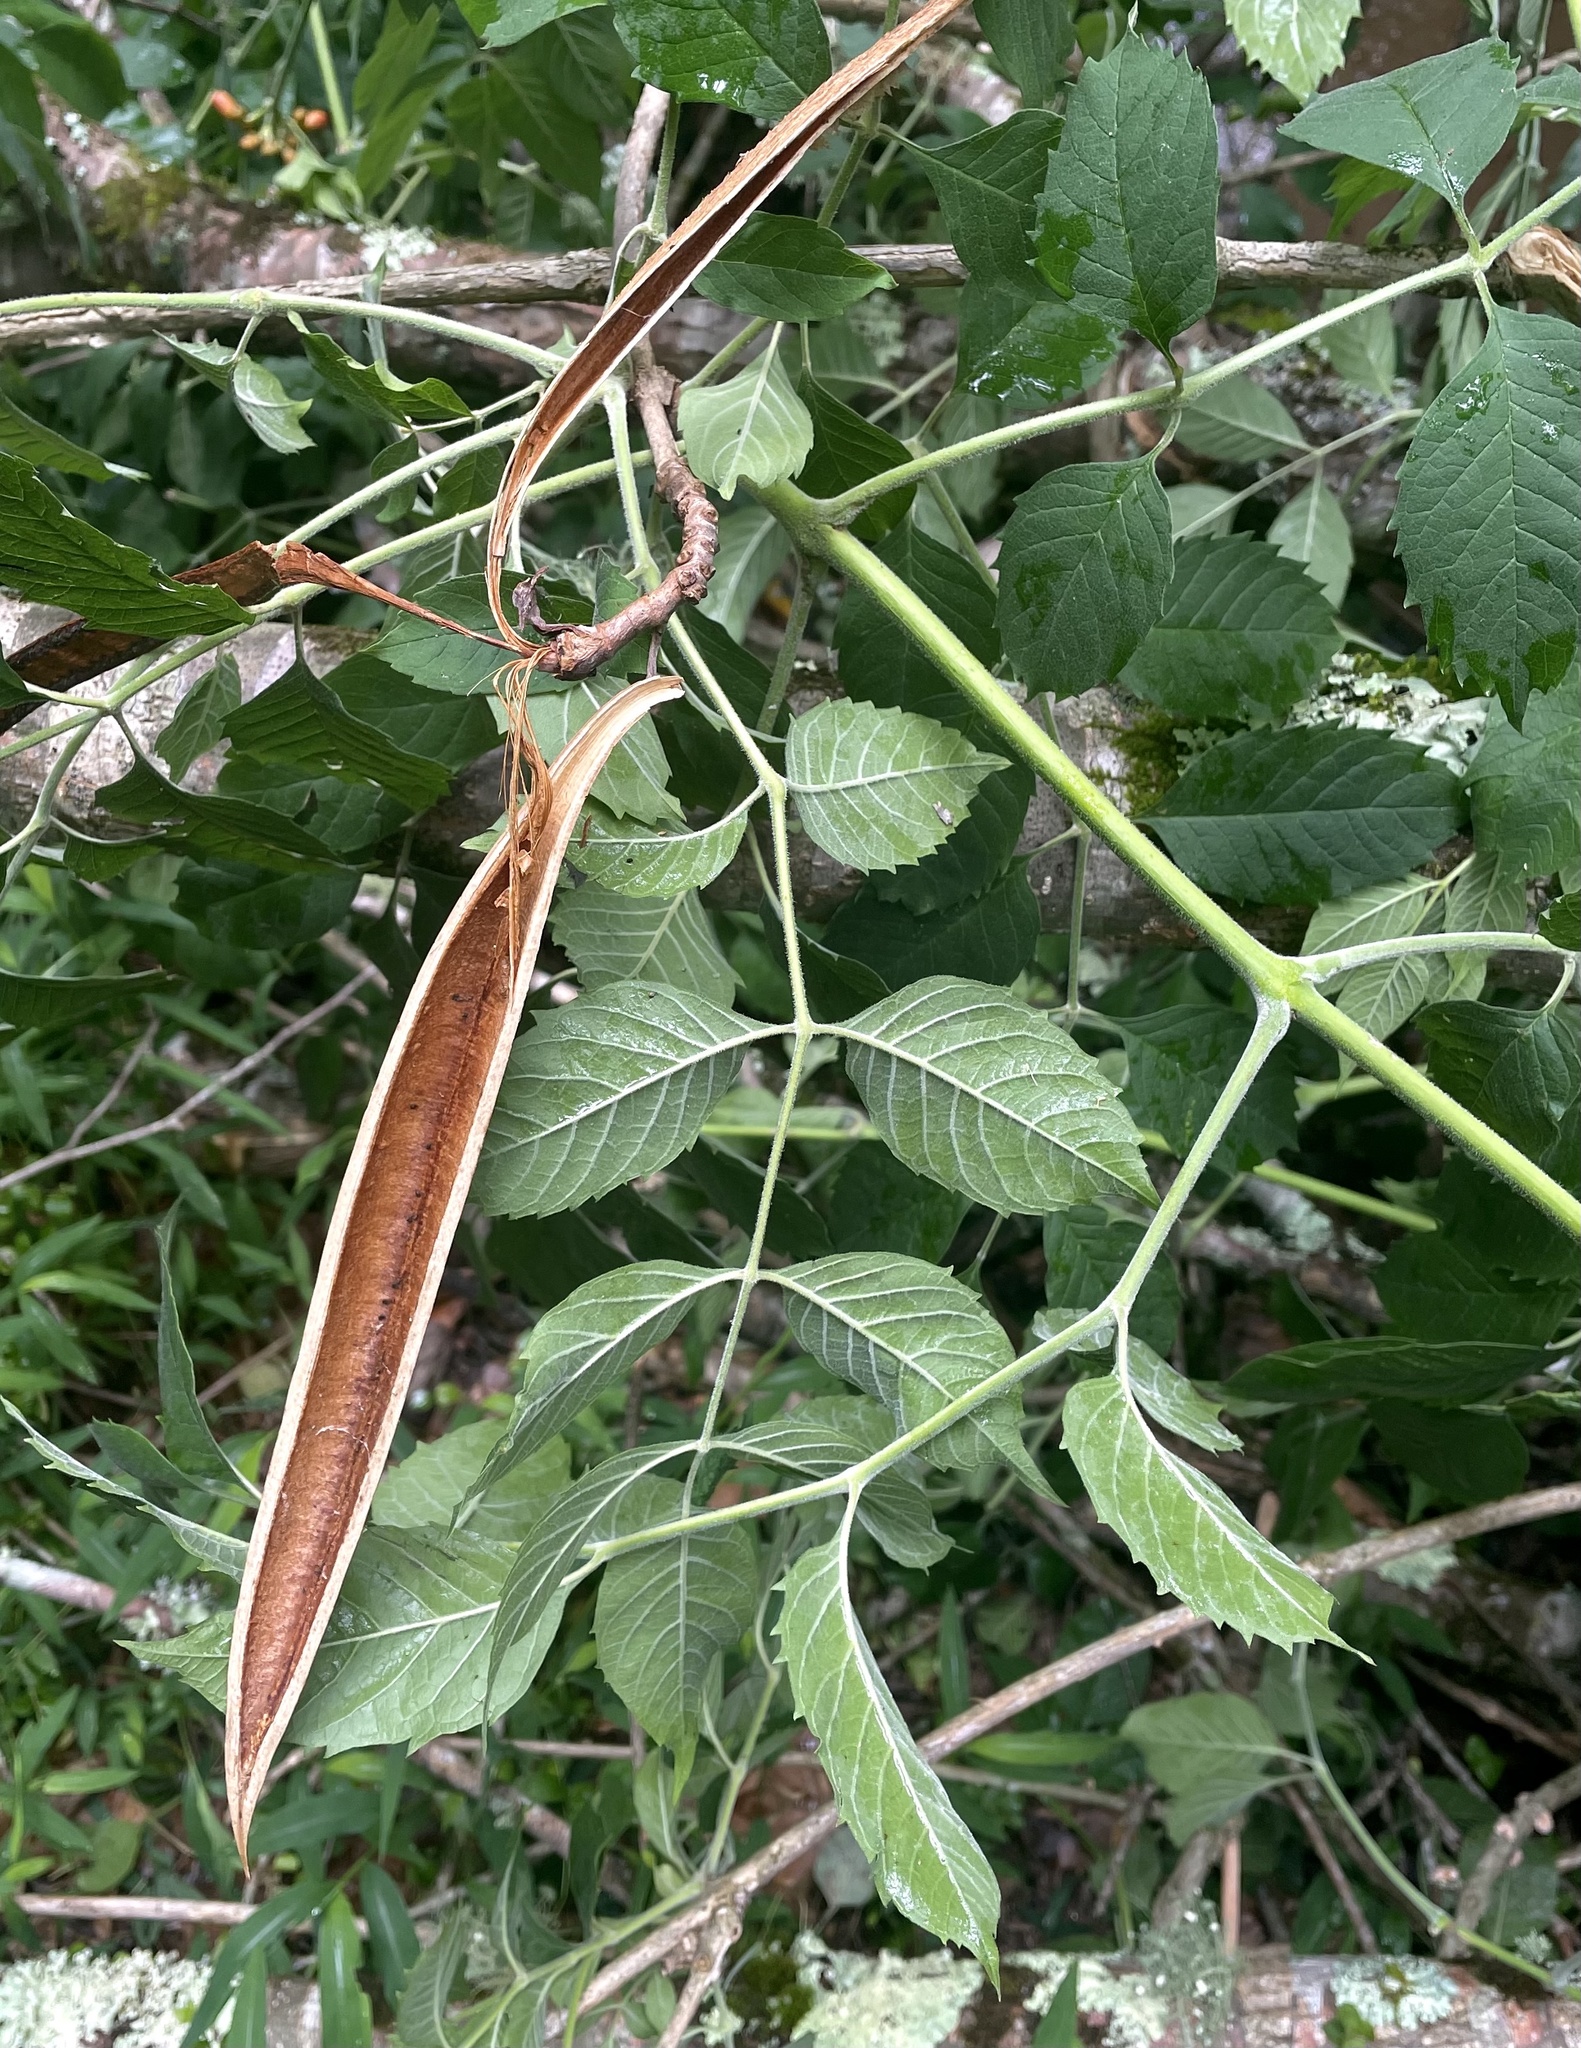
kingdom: Plantae
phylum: Tracheophyta
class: Magnoliopsida
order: Lamiales
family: Bignoniaceae
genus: Campsis
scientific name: Campsis radicans
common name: Trumpet-creeper
